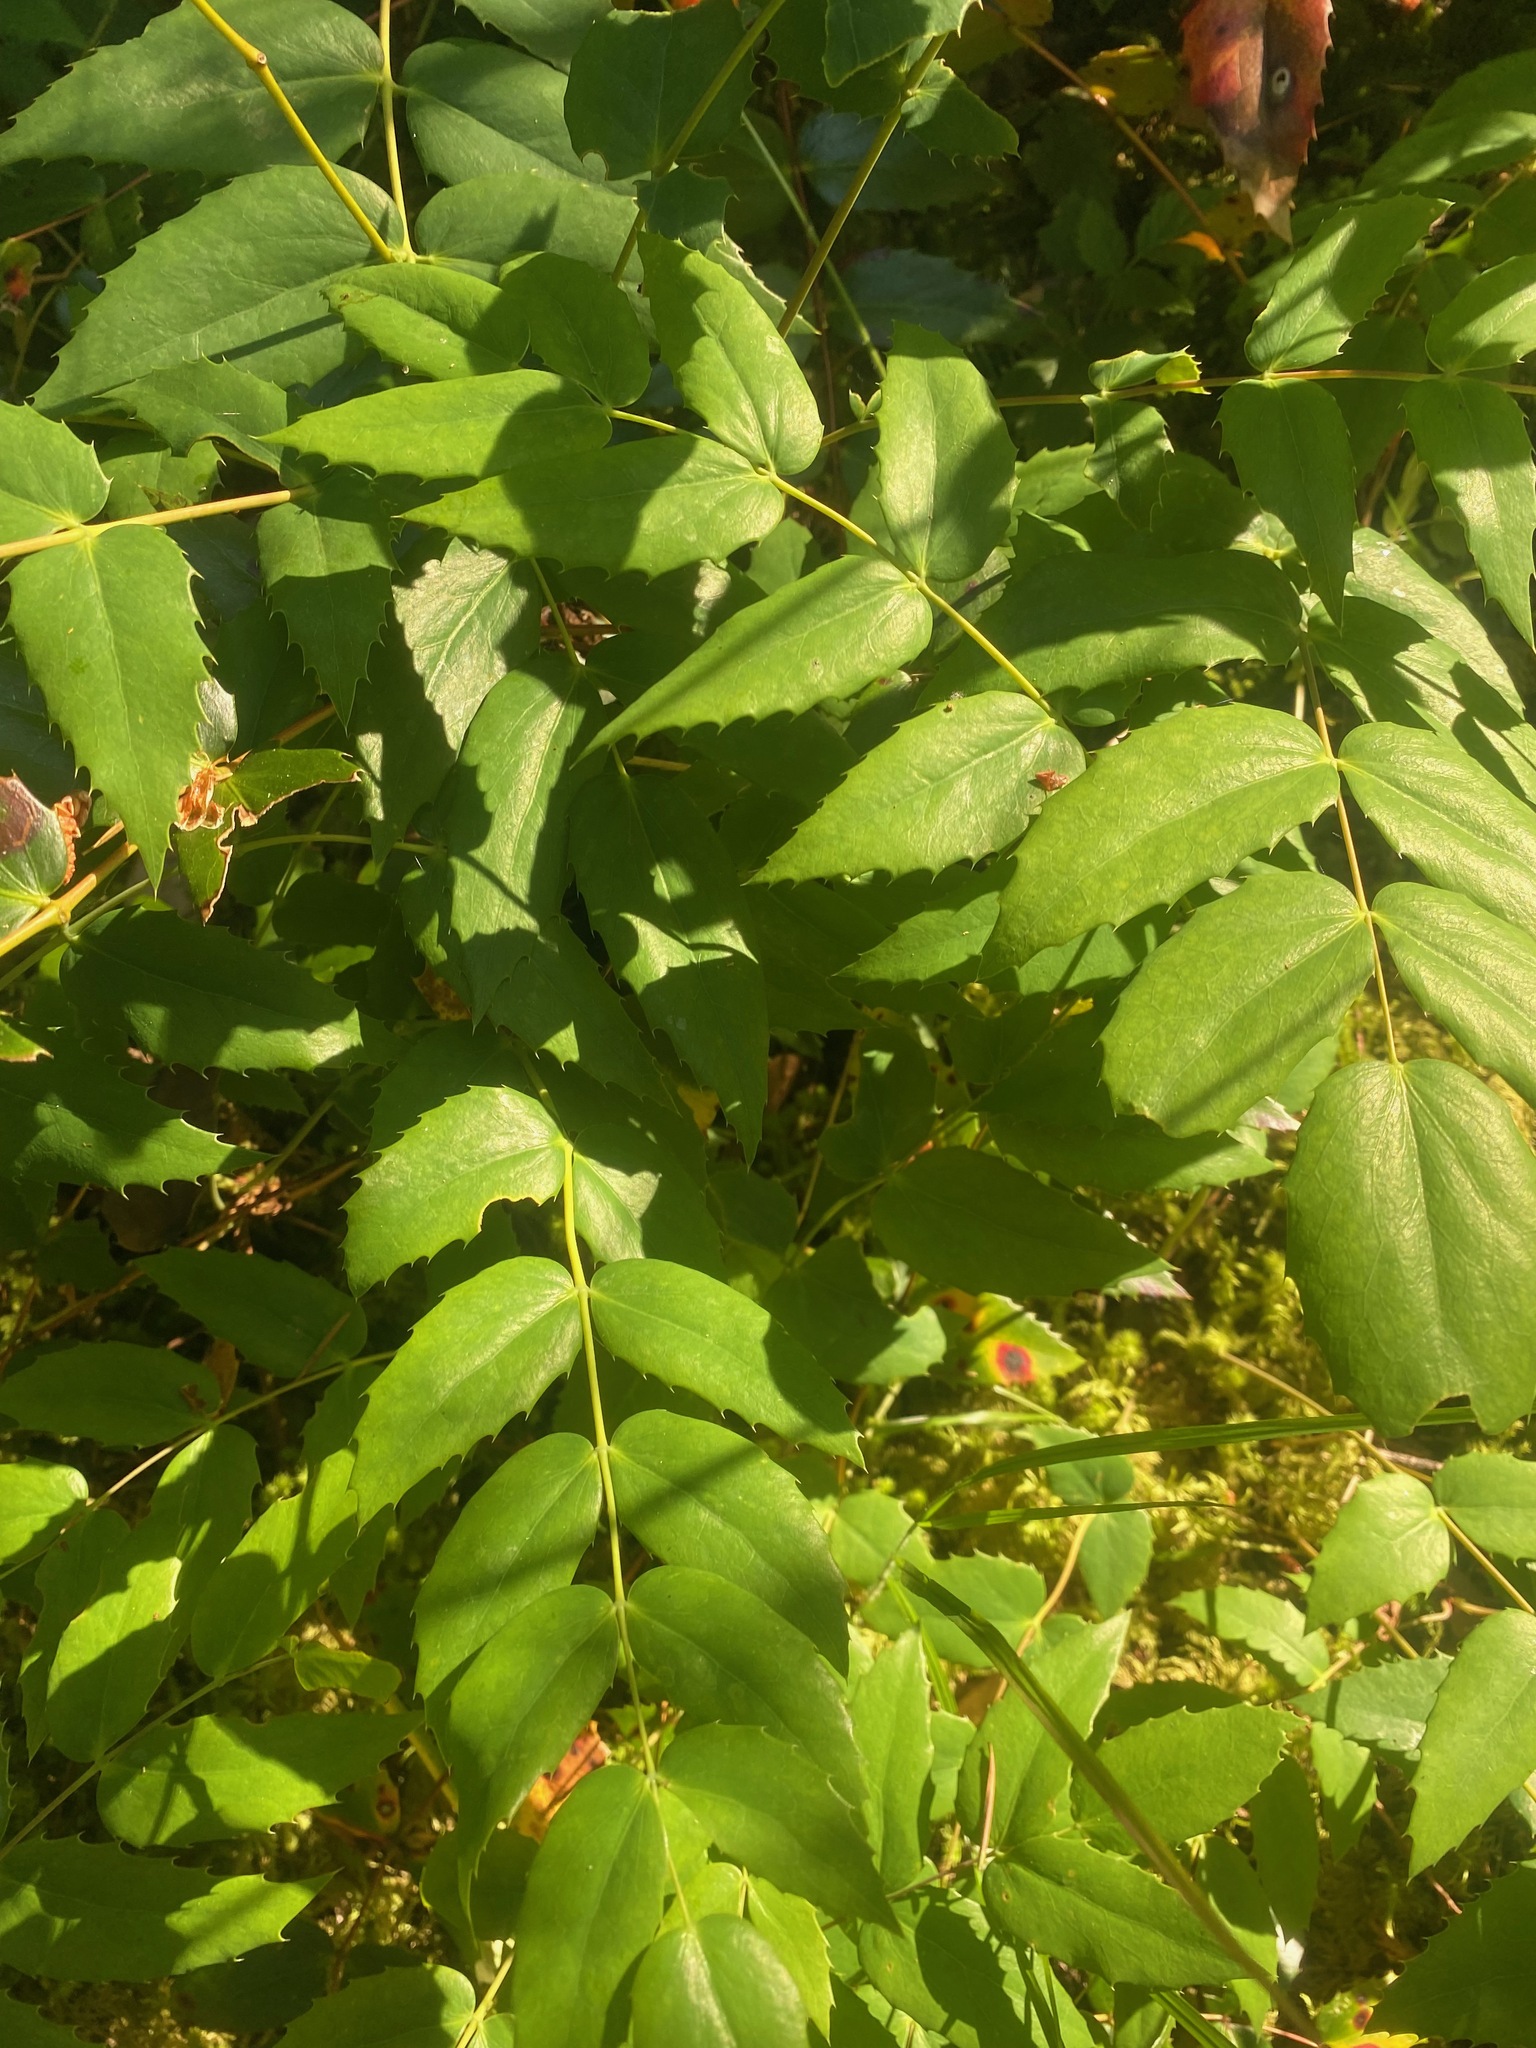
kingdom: Plantae
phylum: Tracheophyta
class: Magnoliopsida
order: Ranunculales
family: Berberidaceae
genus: Mahonia
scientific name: Mahonia nervosa
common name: Cascade oregon-grape
